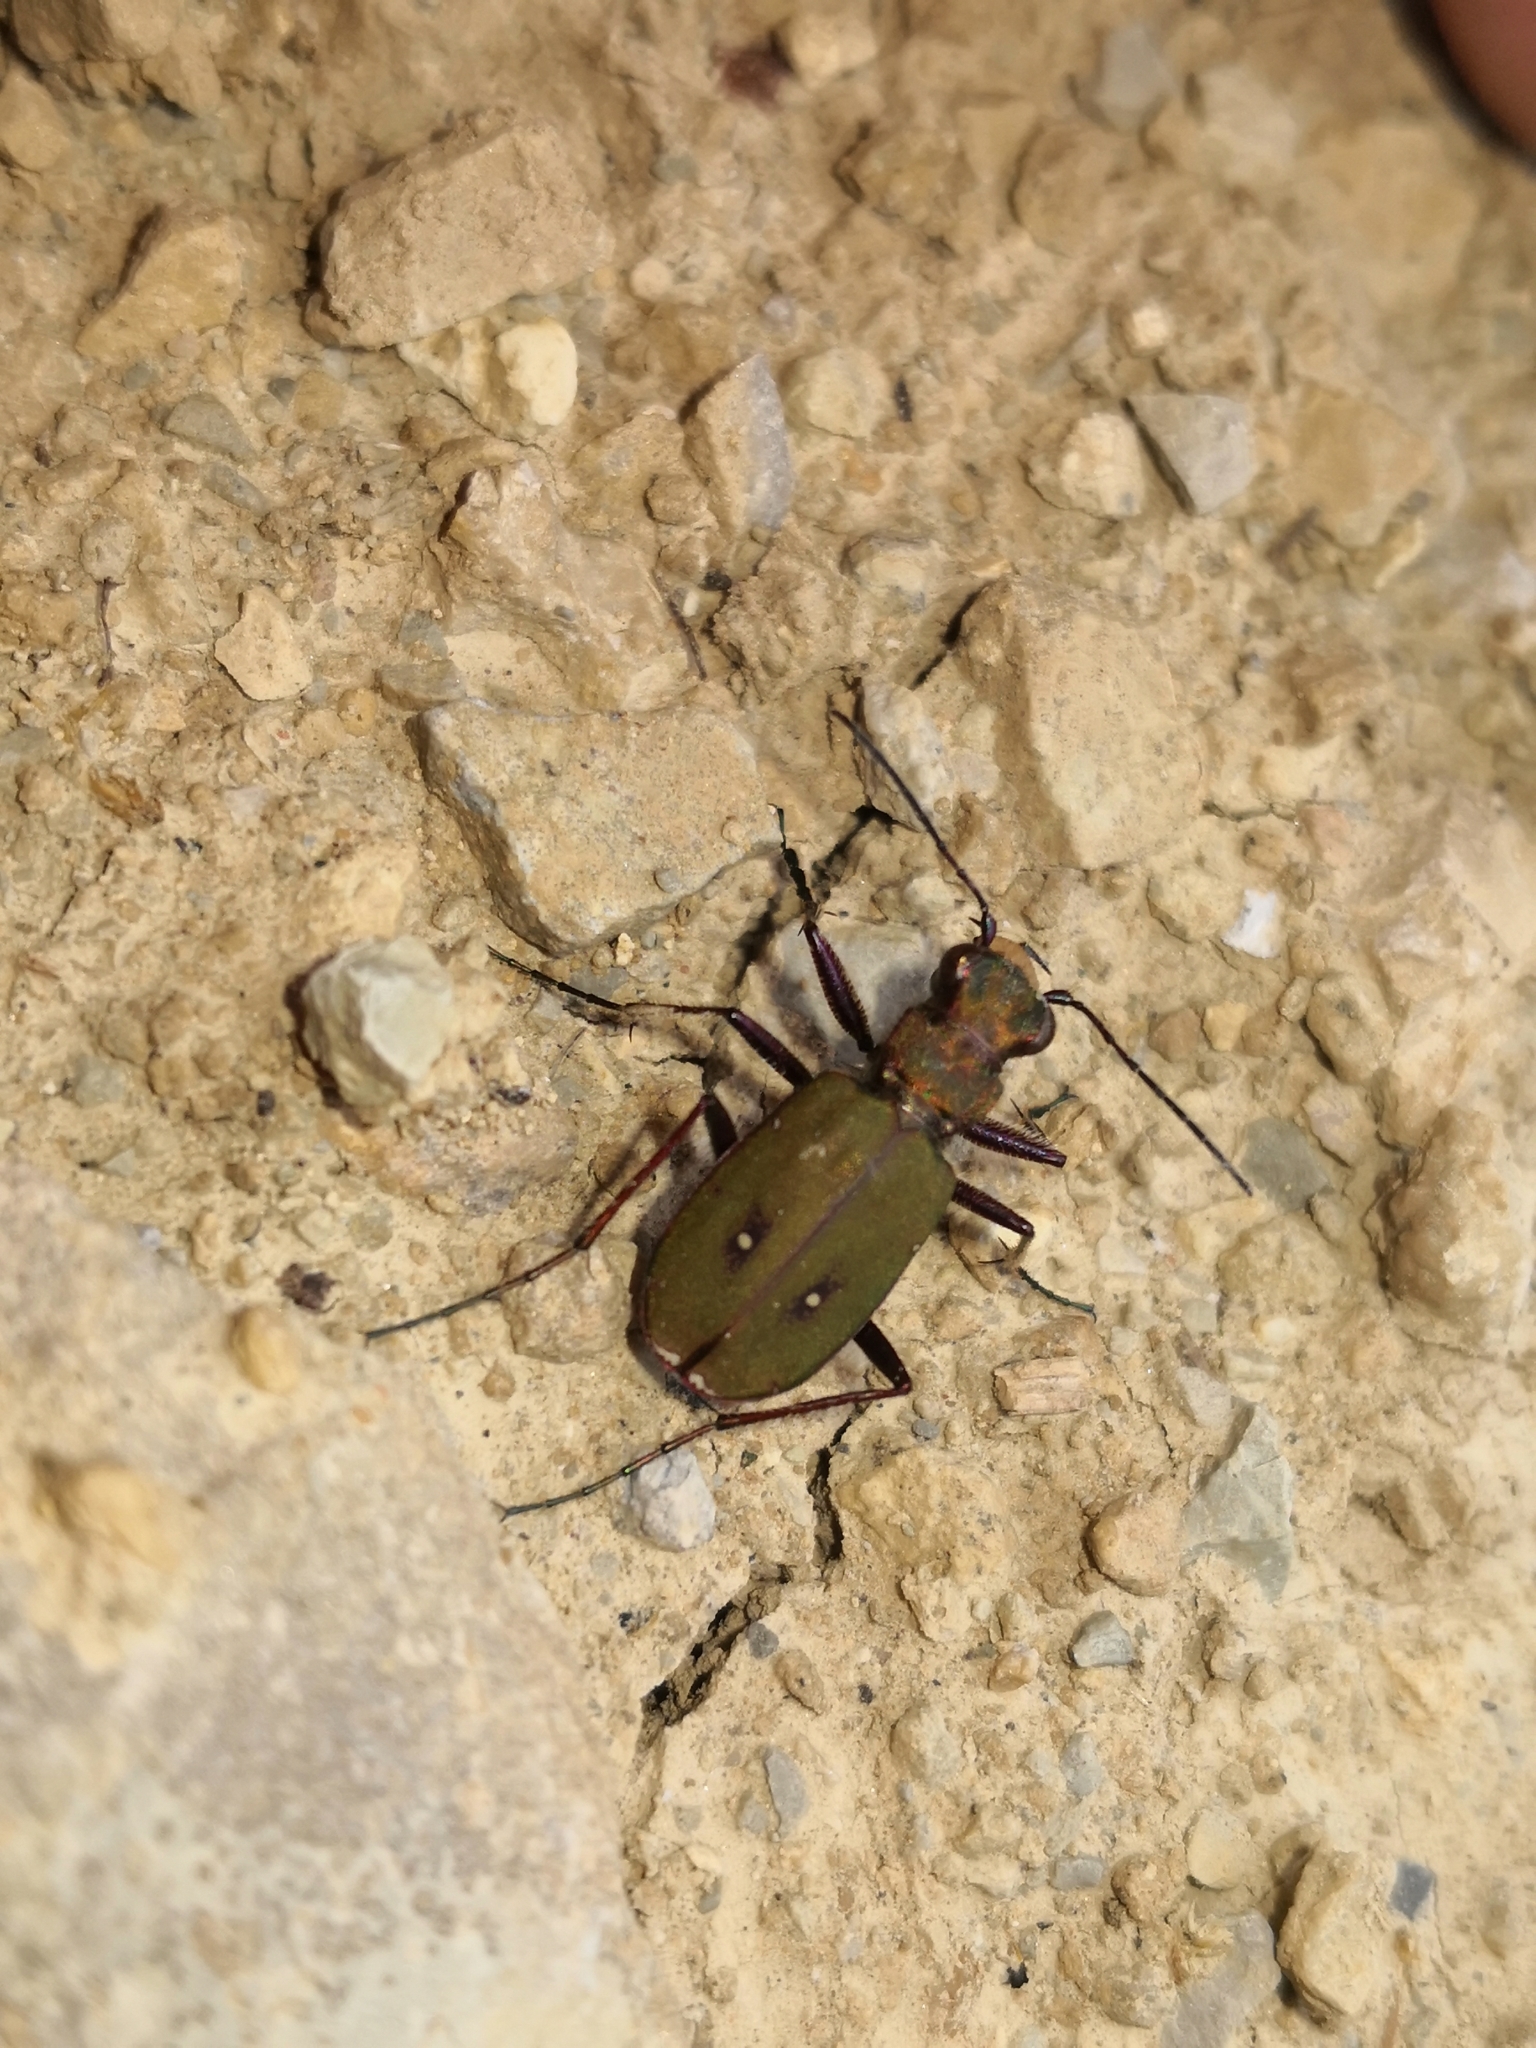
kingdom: Animalia
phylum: Arthropoda
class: Insecta
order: Coleoptera
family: Carabidae
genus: Cicindela
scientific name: Cicindela campestris
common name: Common tiger beetle
